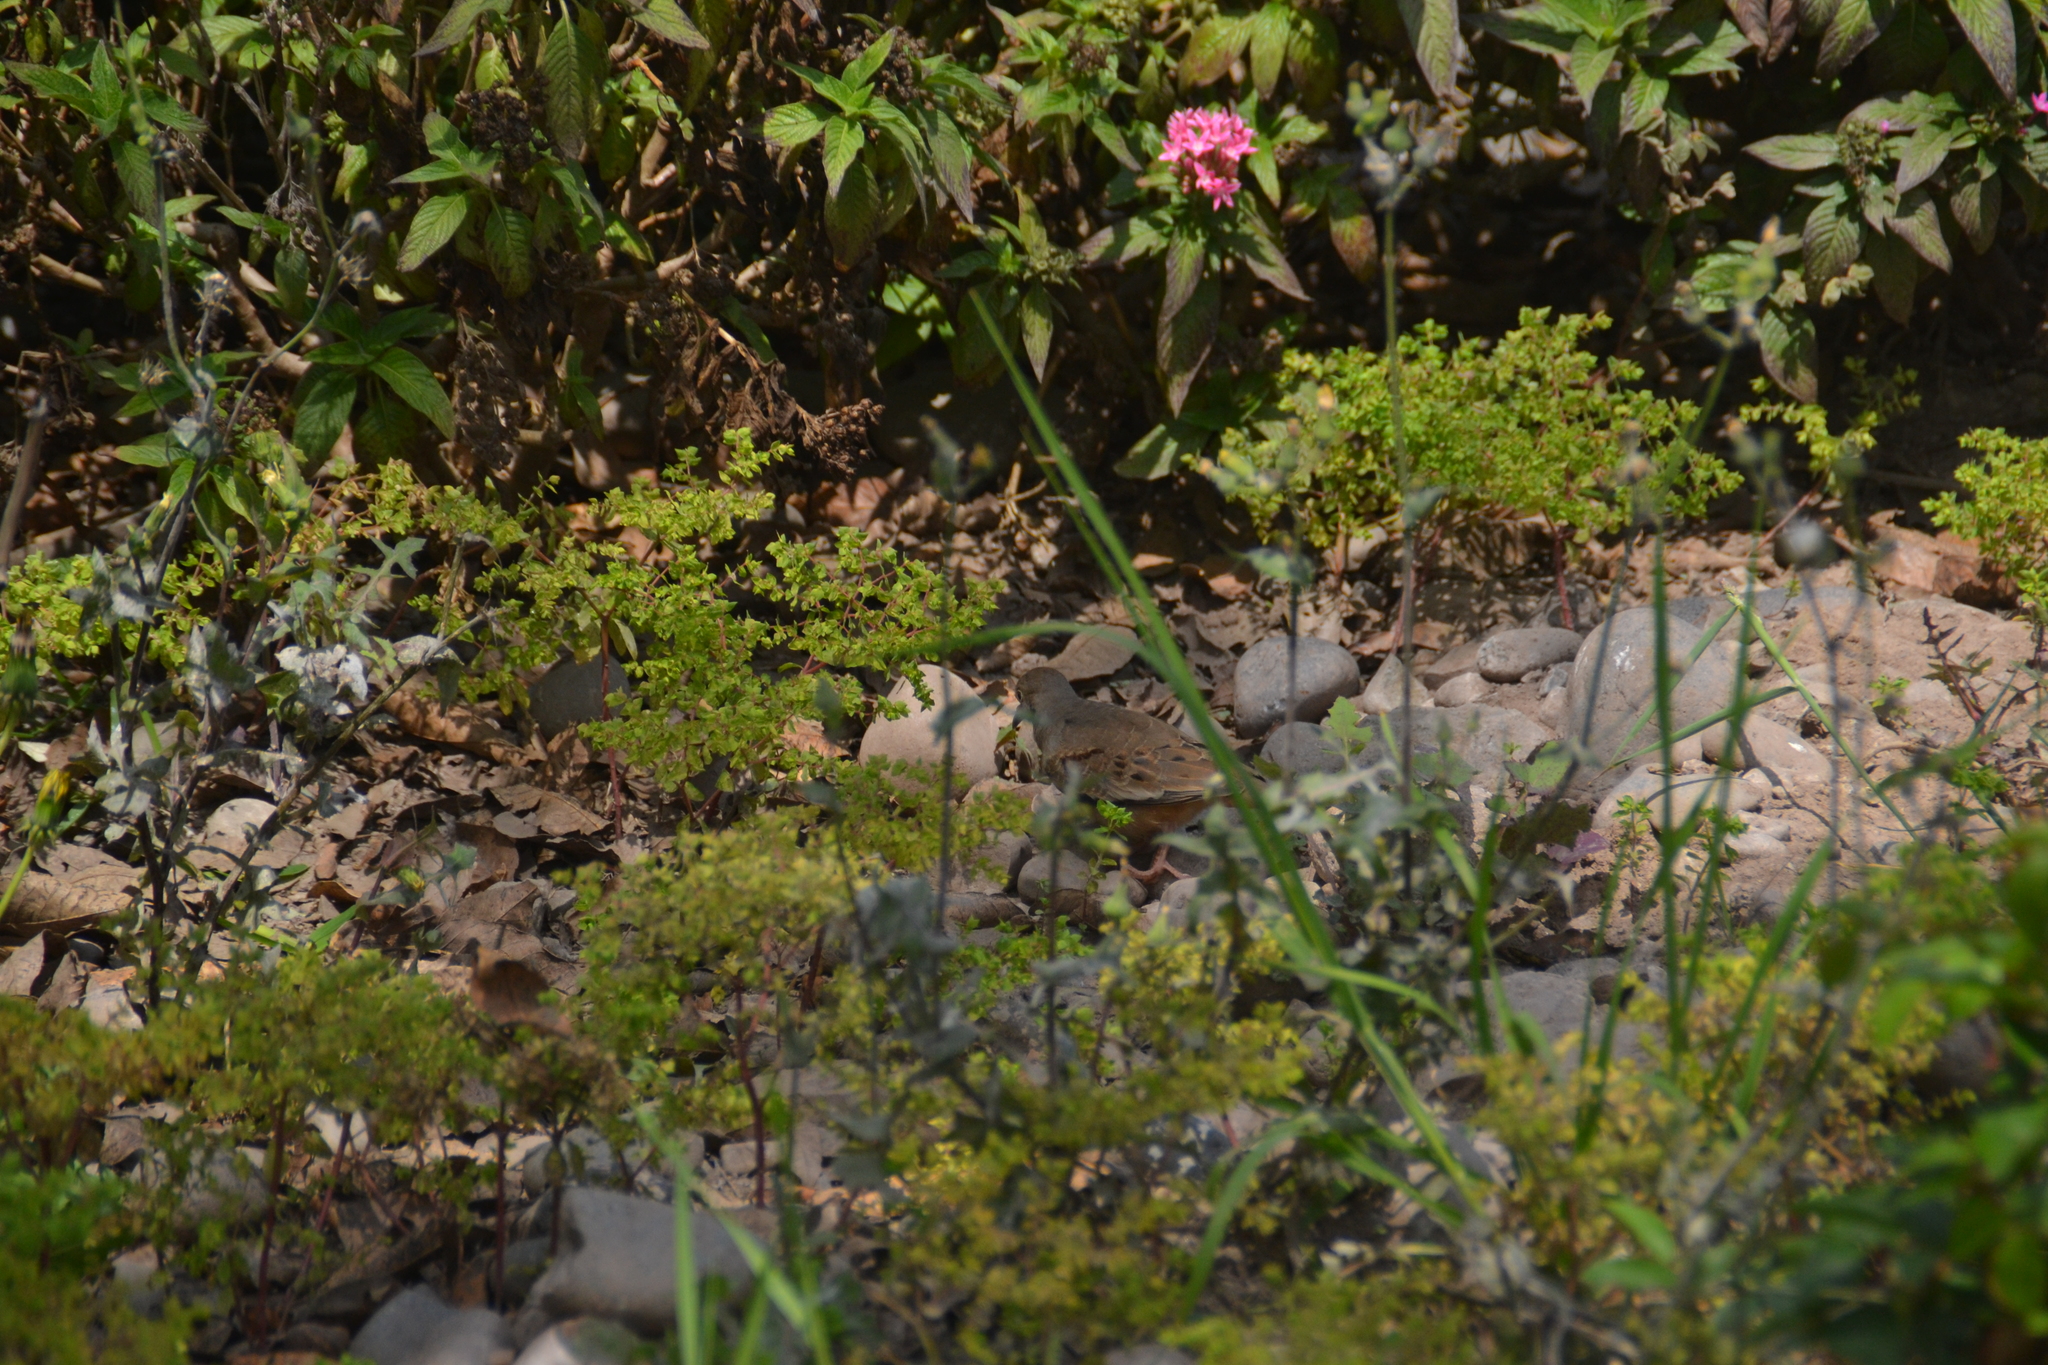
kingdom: Animalia
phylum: Chordata
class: Aves
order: Columbiformes
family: Columbidae
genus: Zenaida
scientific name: Zenaida meloda
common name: West peruvian dove
